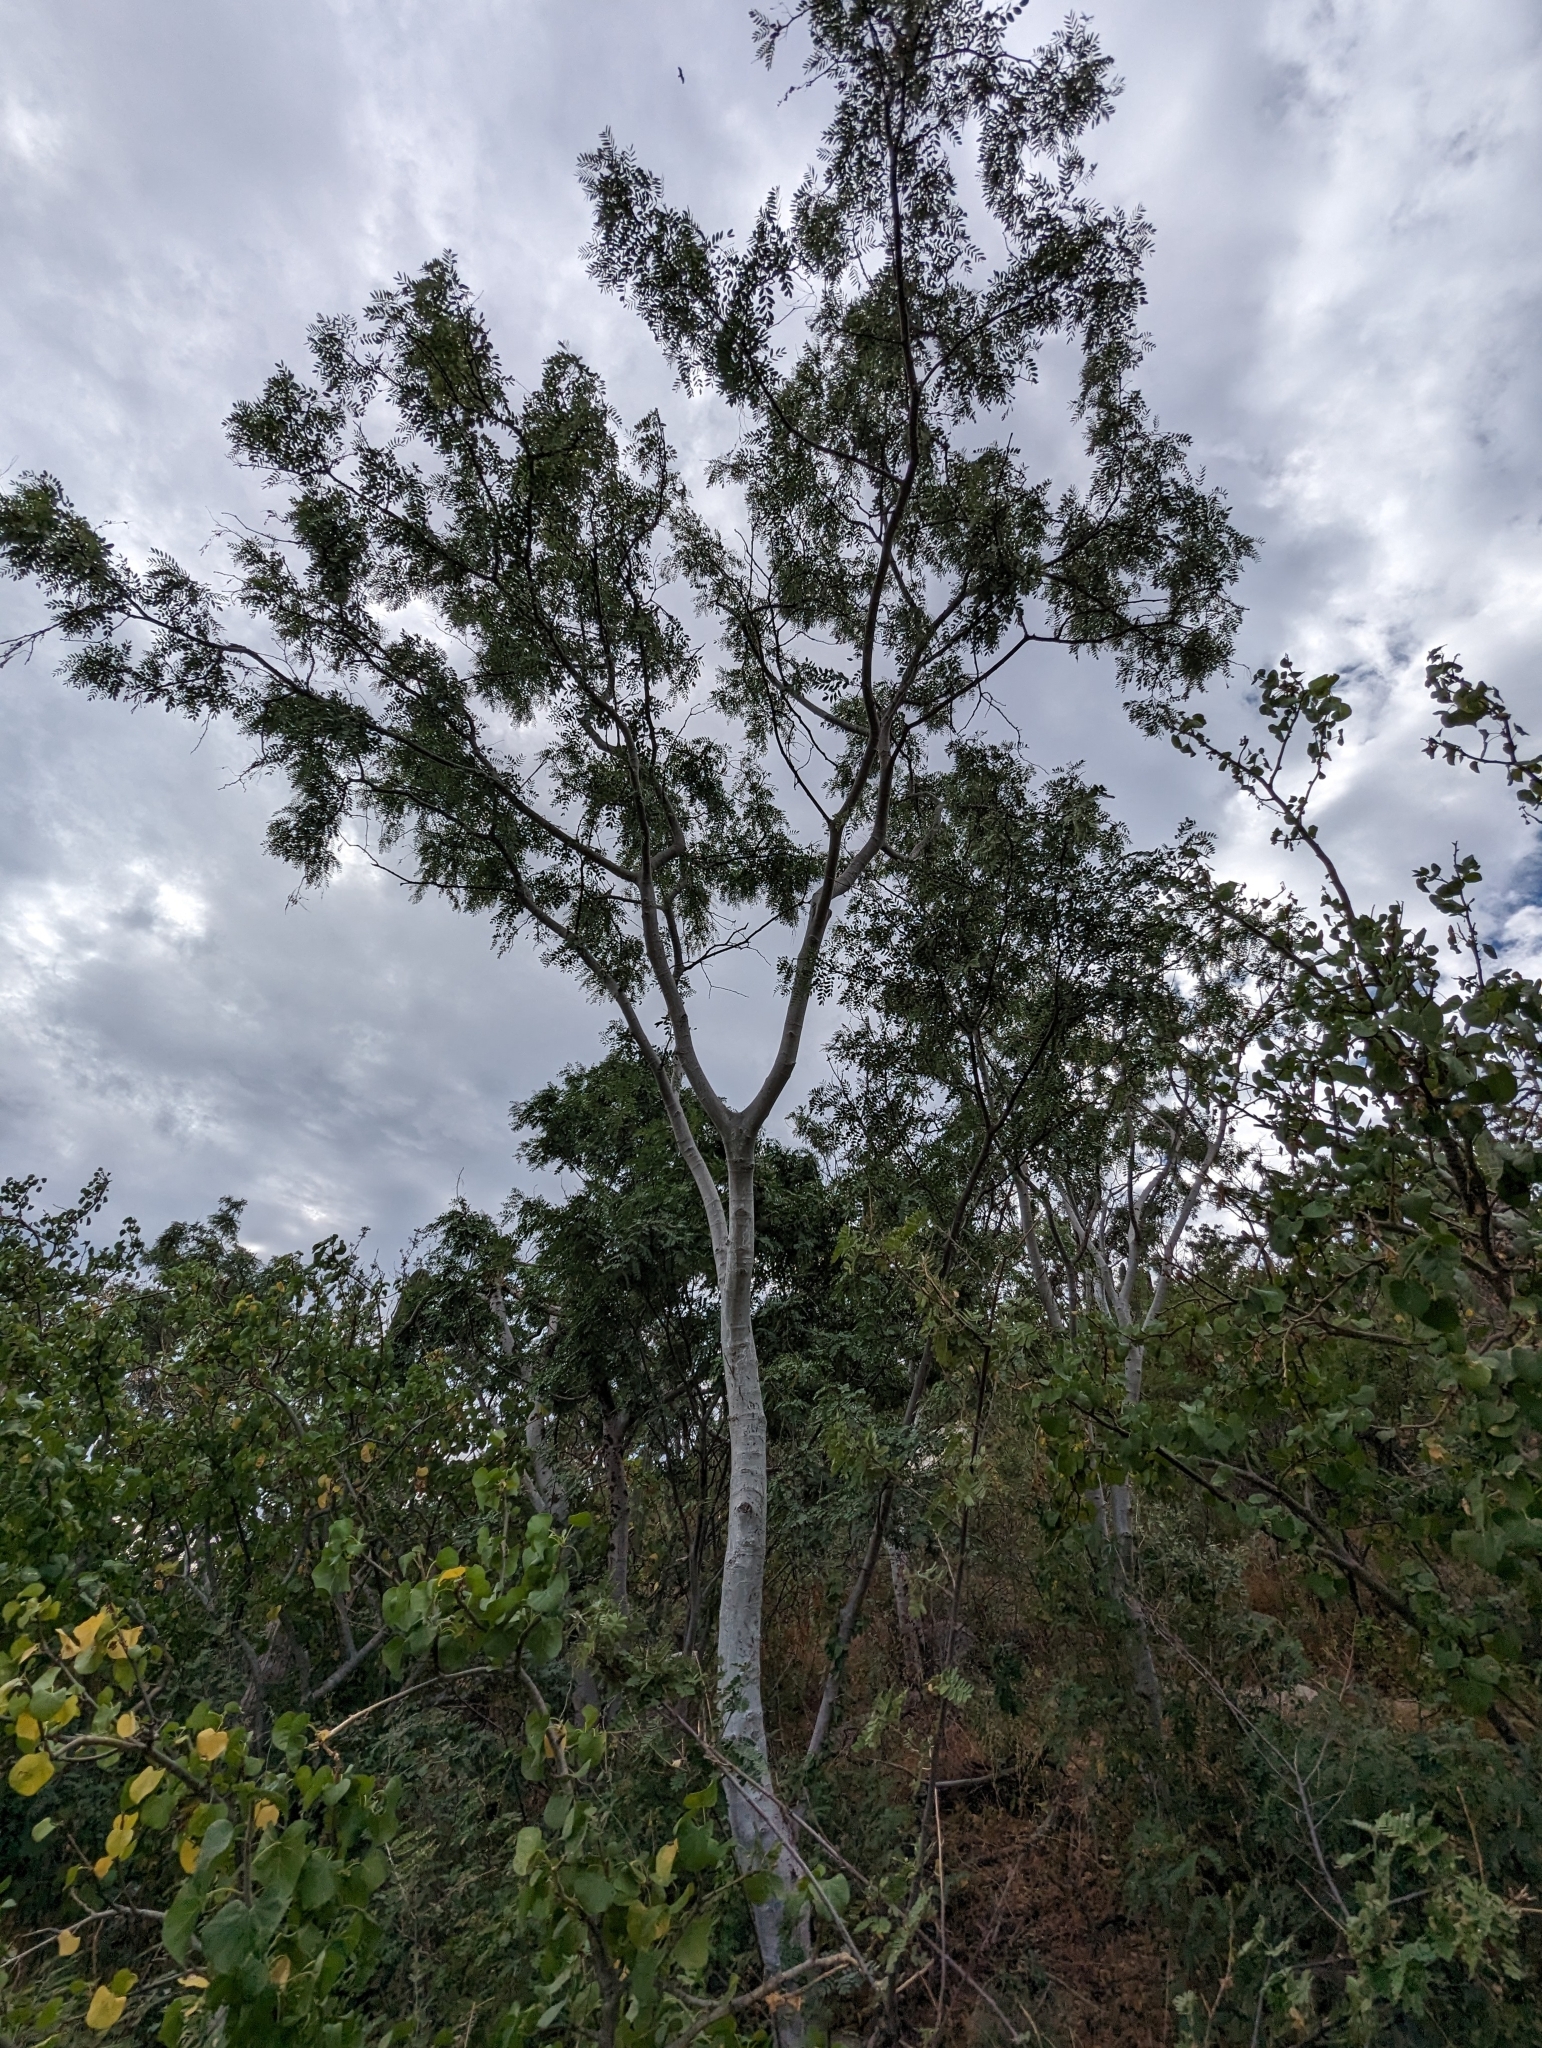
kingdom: Plantae
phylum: Tracheophyta
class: Magnoliopsida
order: Fabales
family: Fabaceae
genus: Lysiloma
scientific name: Lysiloma candidum
